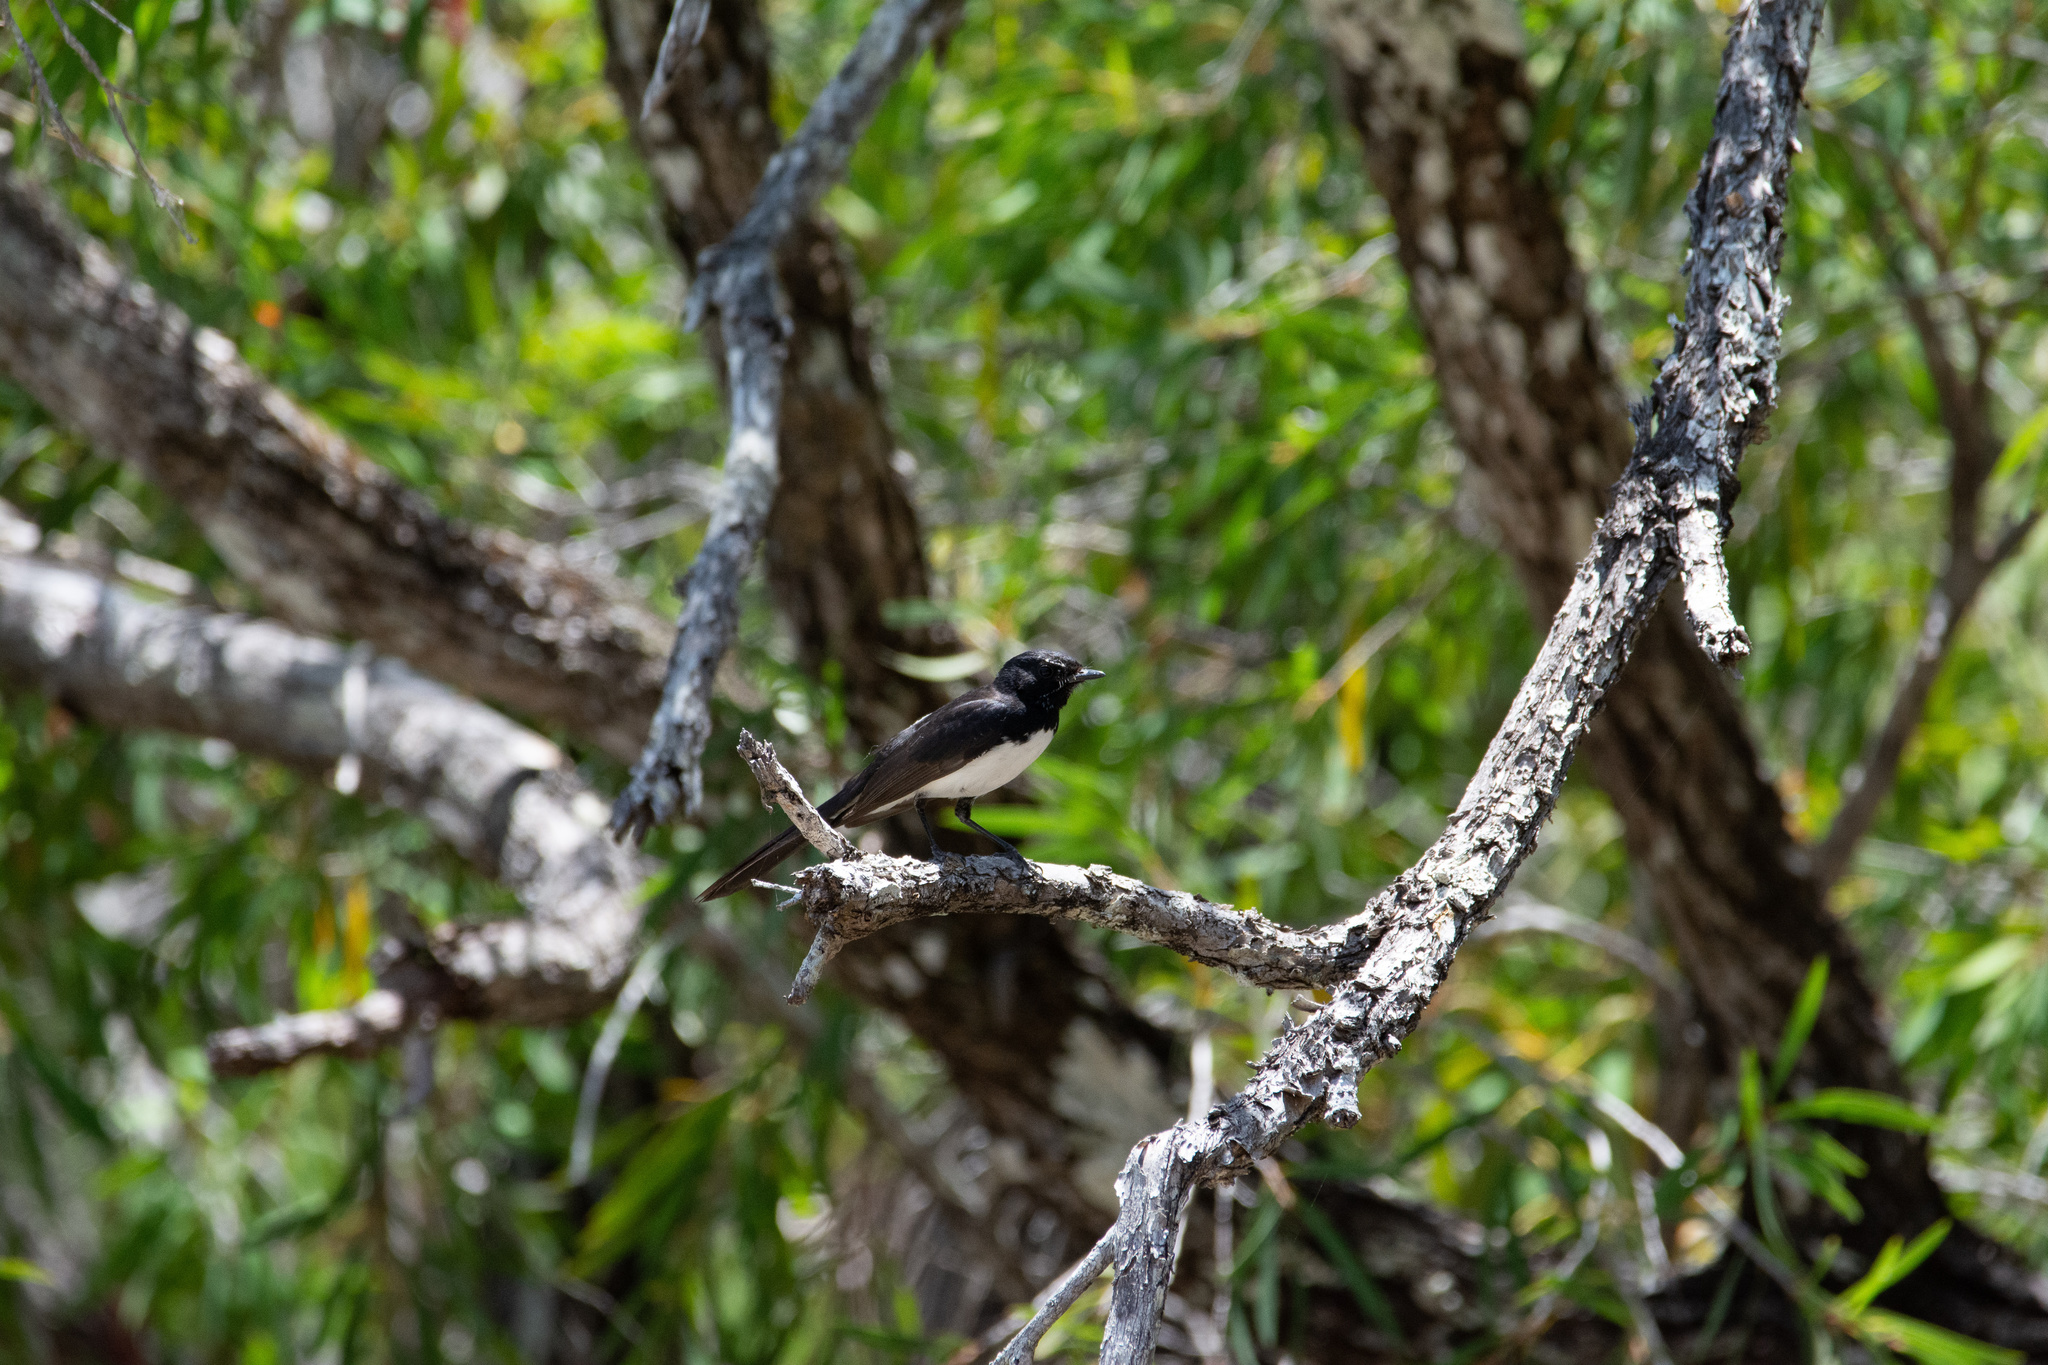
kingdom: Animalia
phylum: Chordata
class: Aves
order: Passeriformes
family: Rhipiduridae
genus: Rhipidura
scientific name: Rhipidura leucophrys
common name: Willie wagtail
